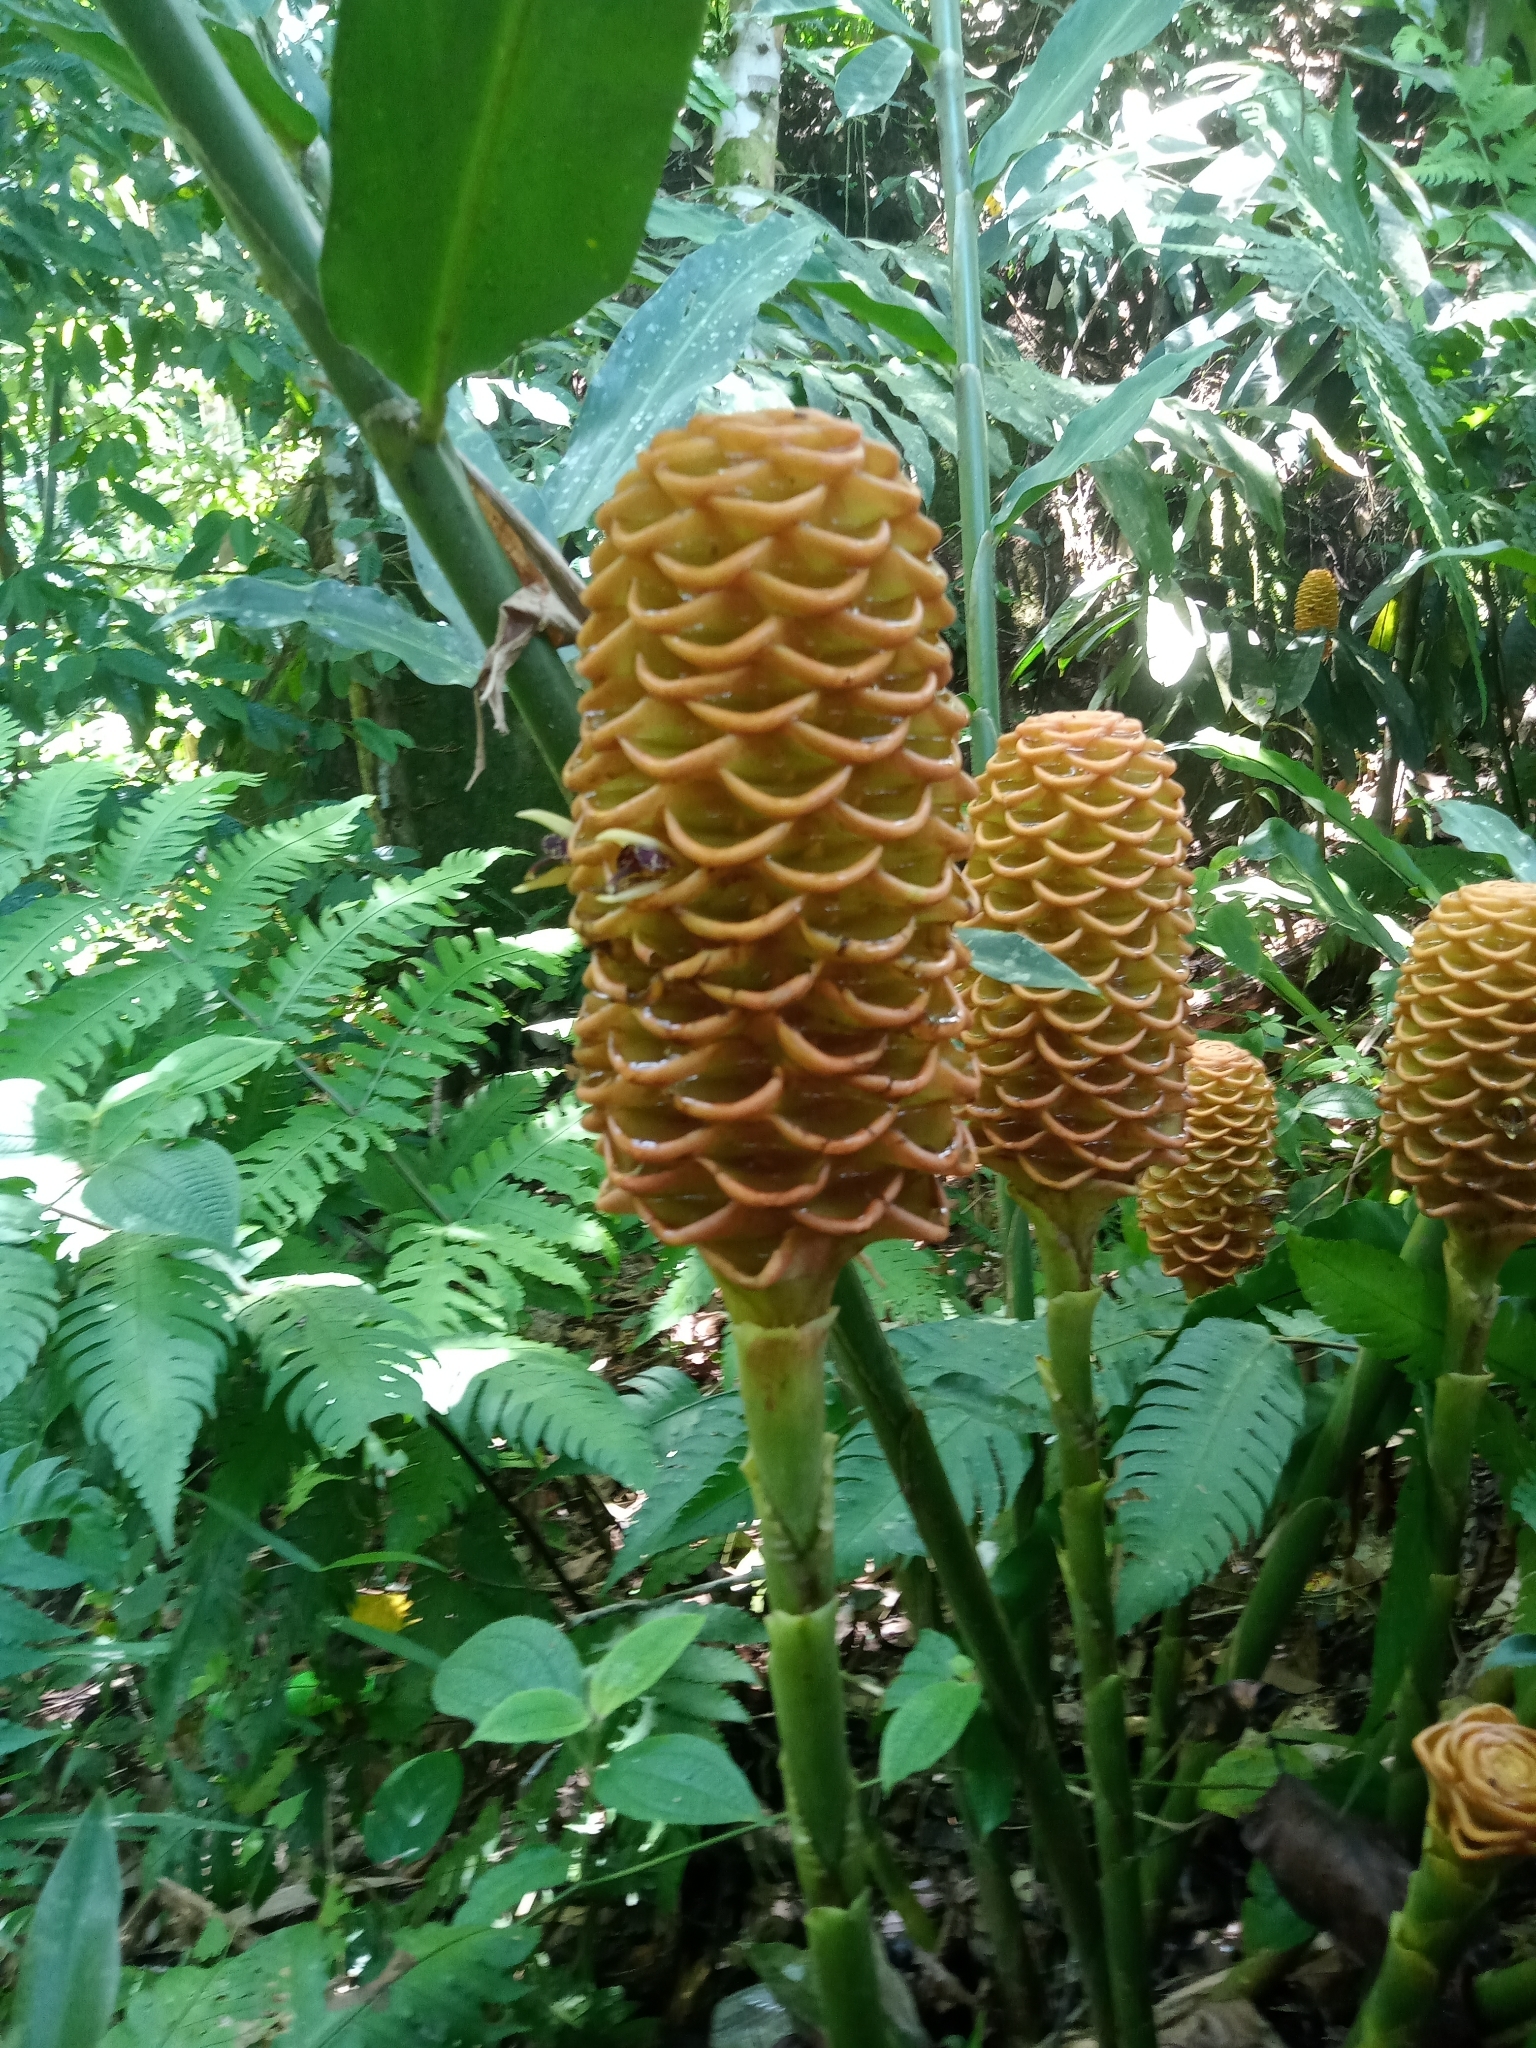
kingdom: Plantae
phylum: Tracheophyta
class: Liliopsida
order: Zingiberales
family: Zingiberaceae
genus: Zingiber
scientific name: Zingiber spectabile
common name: Beehive ginger
